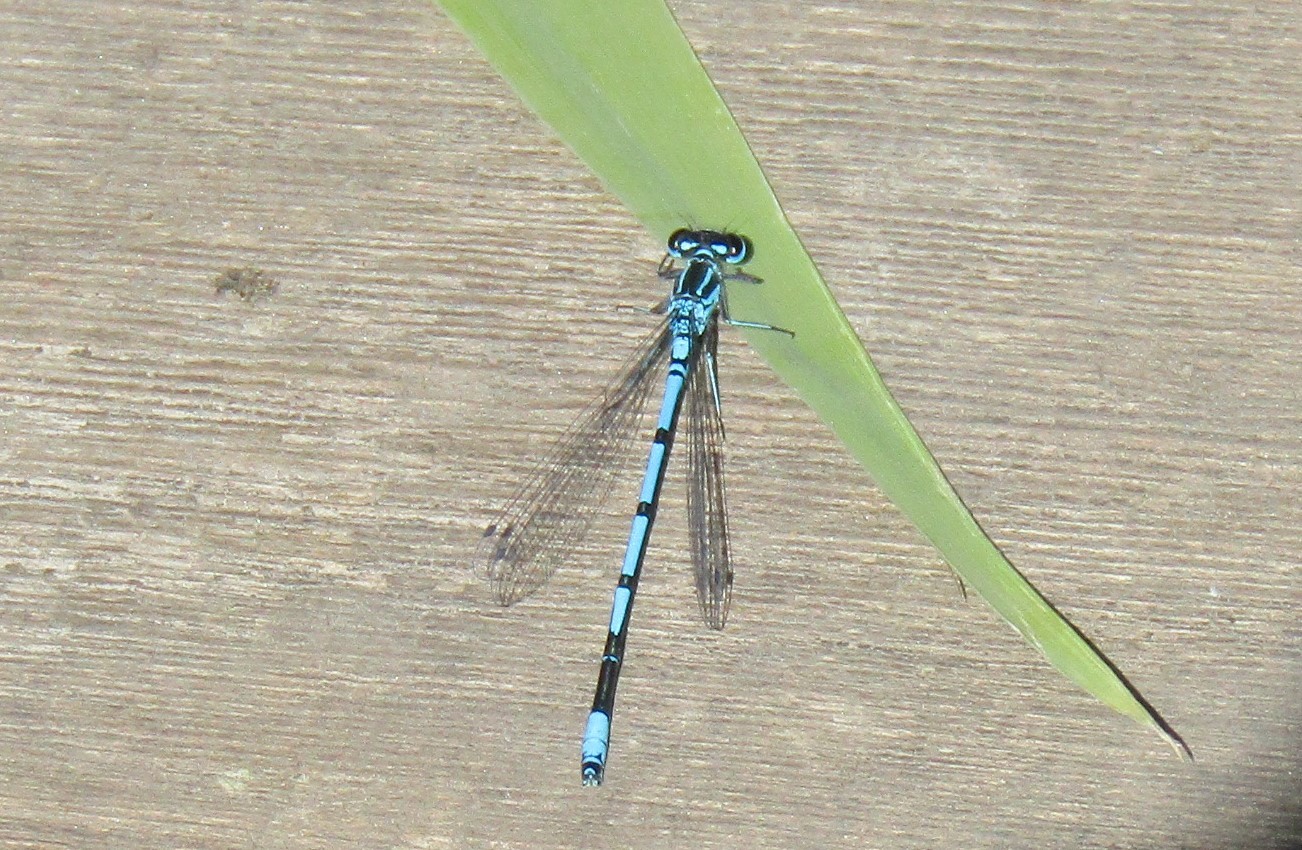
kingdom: Animalia
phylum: Arthropoda
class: Insecta
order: Odonata
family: Coenagrionidae
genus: Coenagrion
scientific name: Coenagrion puella
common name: Azure damselfly
